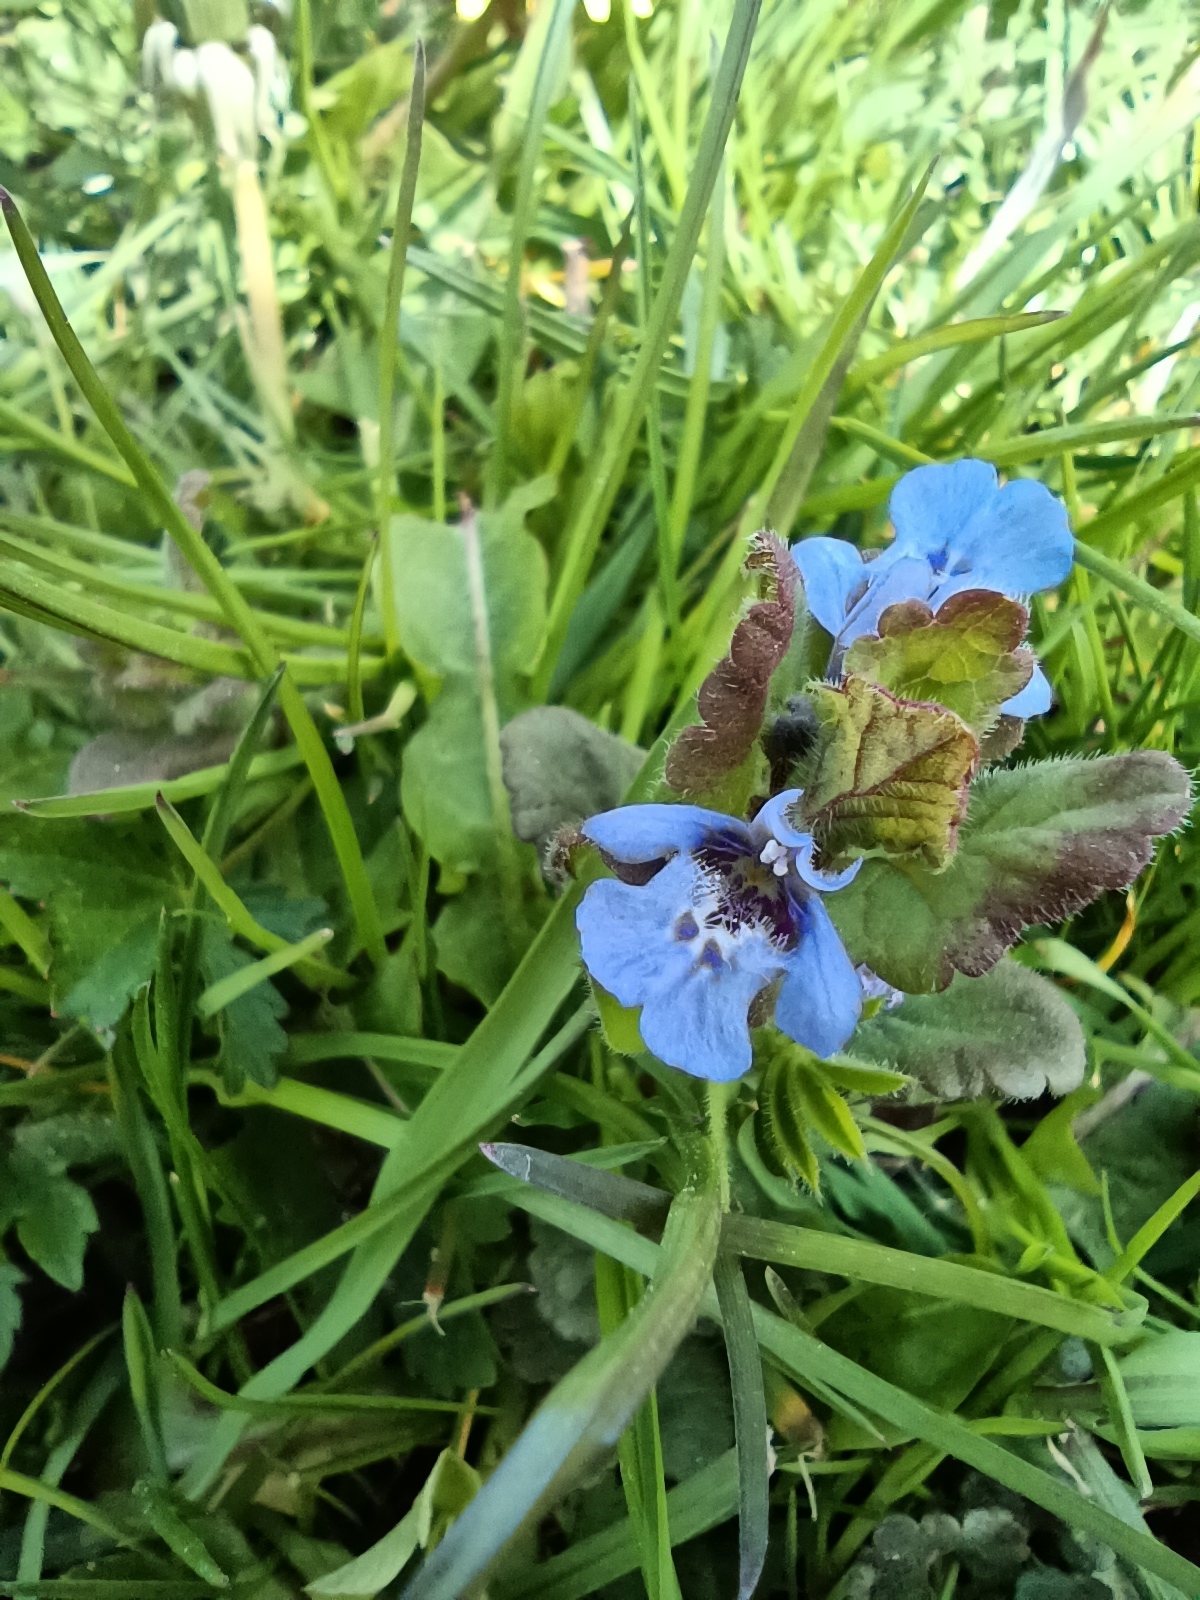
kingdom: Plantae
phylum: Tracheophyta
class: Magnoliopsida
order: Lamiales
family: Lamiaceae
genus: Glechoma
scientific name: Glechoma hederacea
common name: Ground ivy
